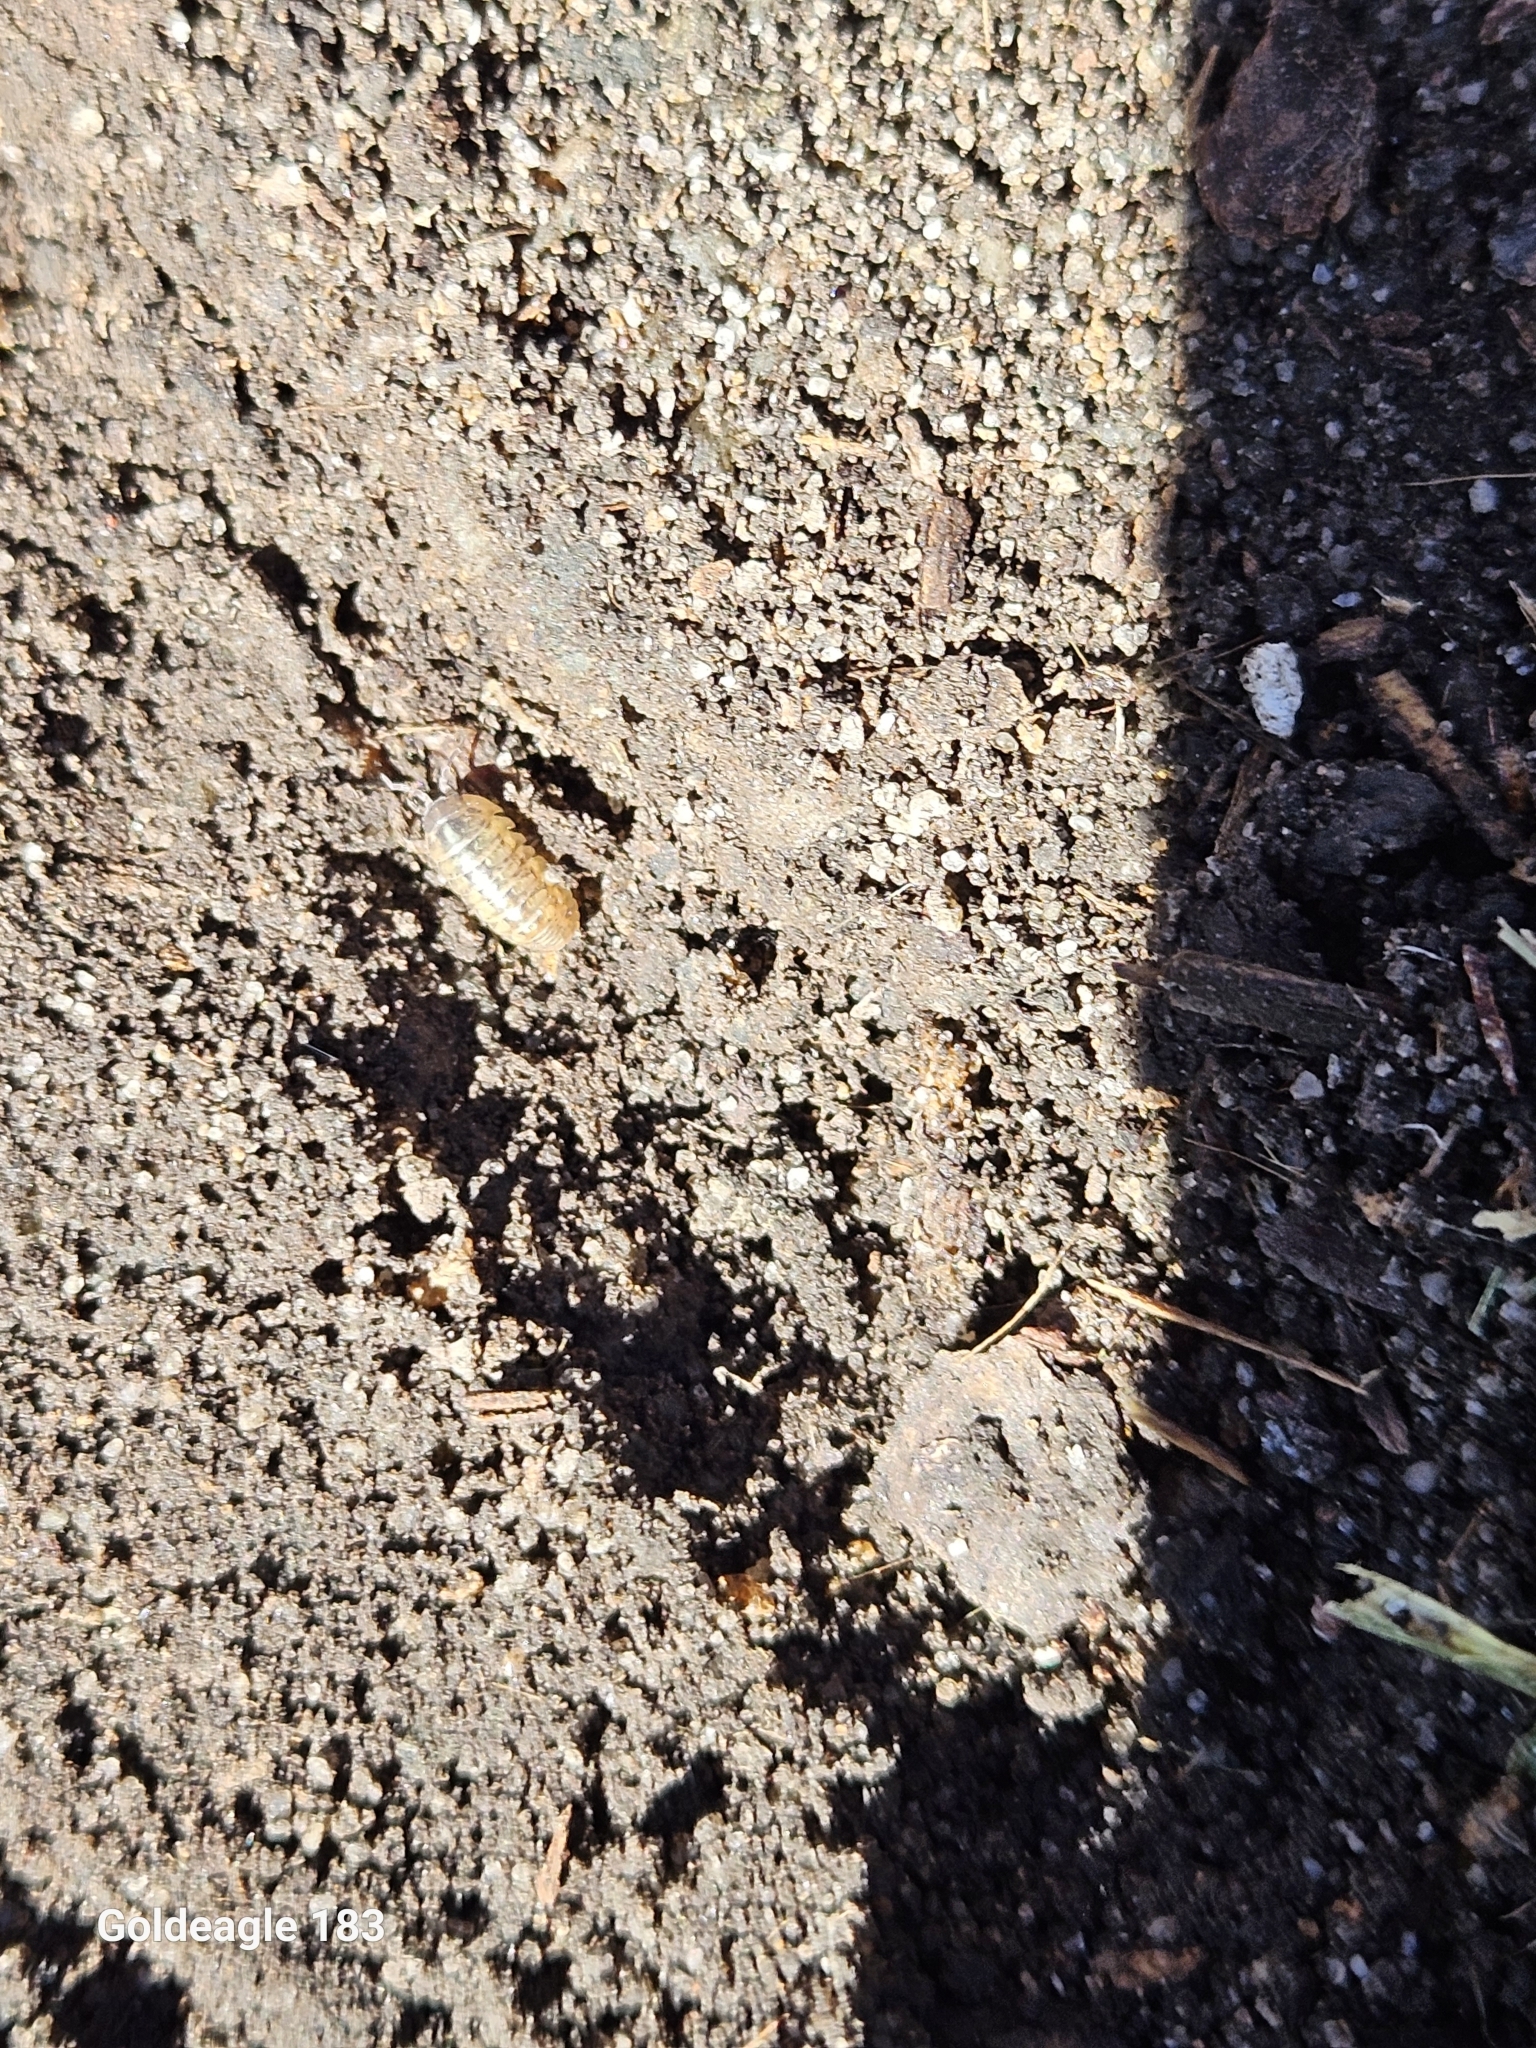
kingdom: Animalia
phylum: Arthropoda
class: Malacostraca
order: Isopoda
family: Armadillidiidae
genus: Armadillidium
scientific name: Armadillidium vulgare
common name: Common pill woodlouse
